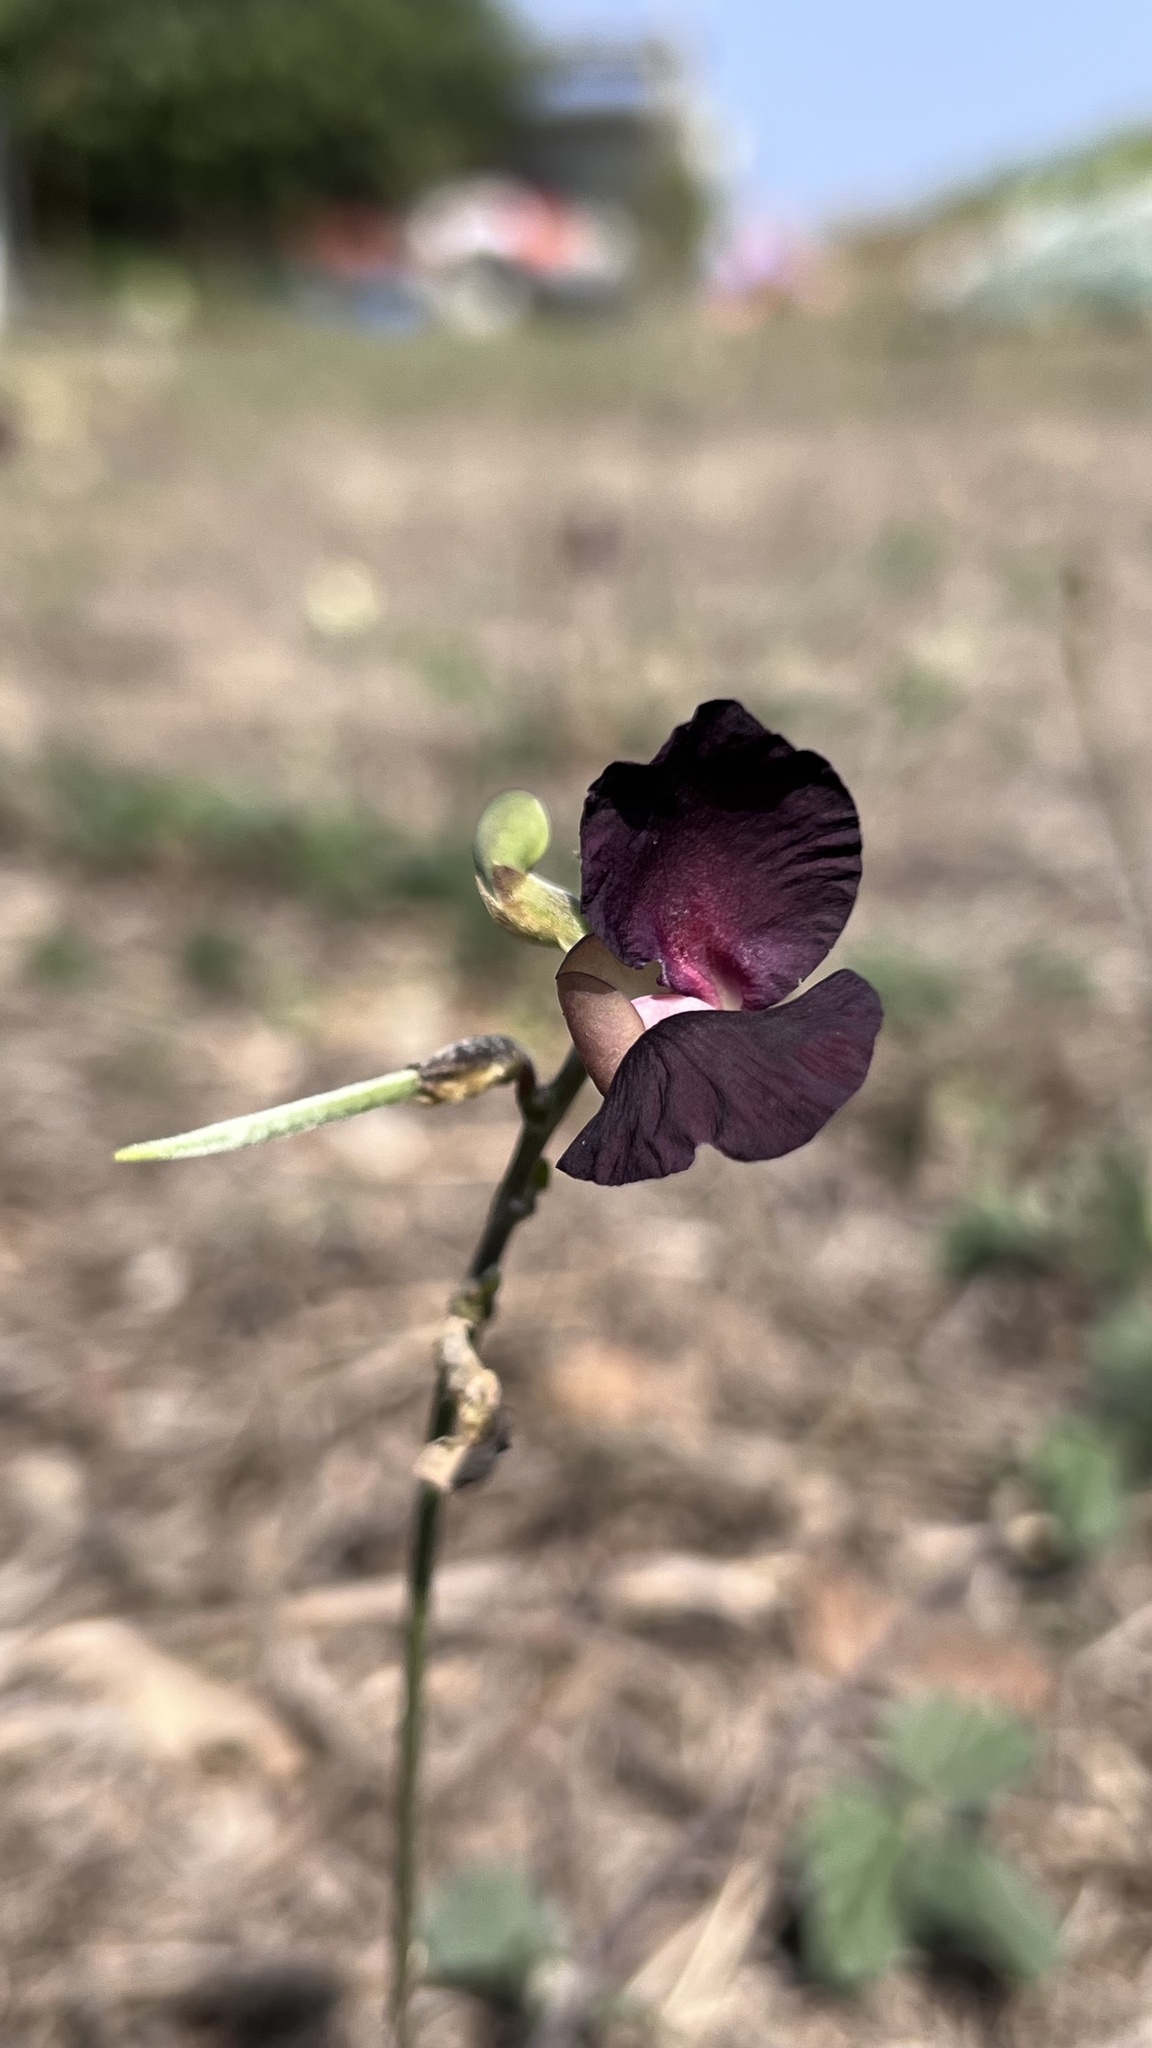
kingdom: Plantae
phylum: Tracheophyta
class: Magnoliopsida
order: Fabales
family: Fabaceae
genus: Macroptilium
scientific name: Macroptilium atropurpureum
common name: Purple bushbean
